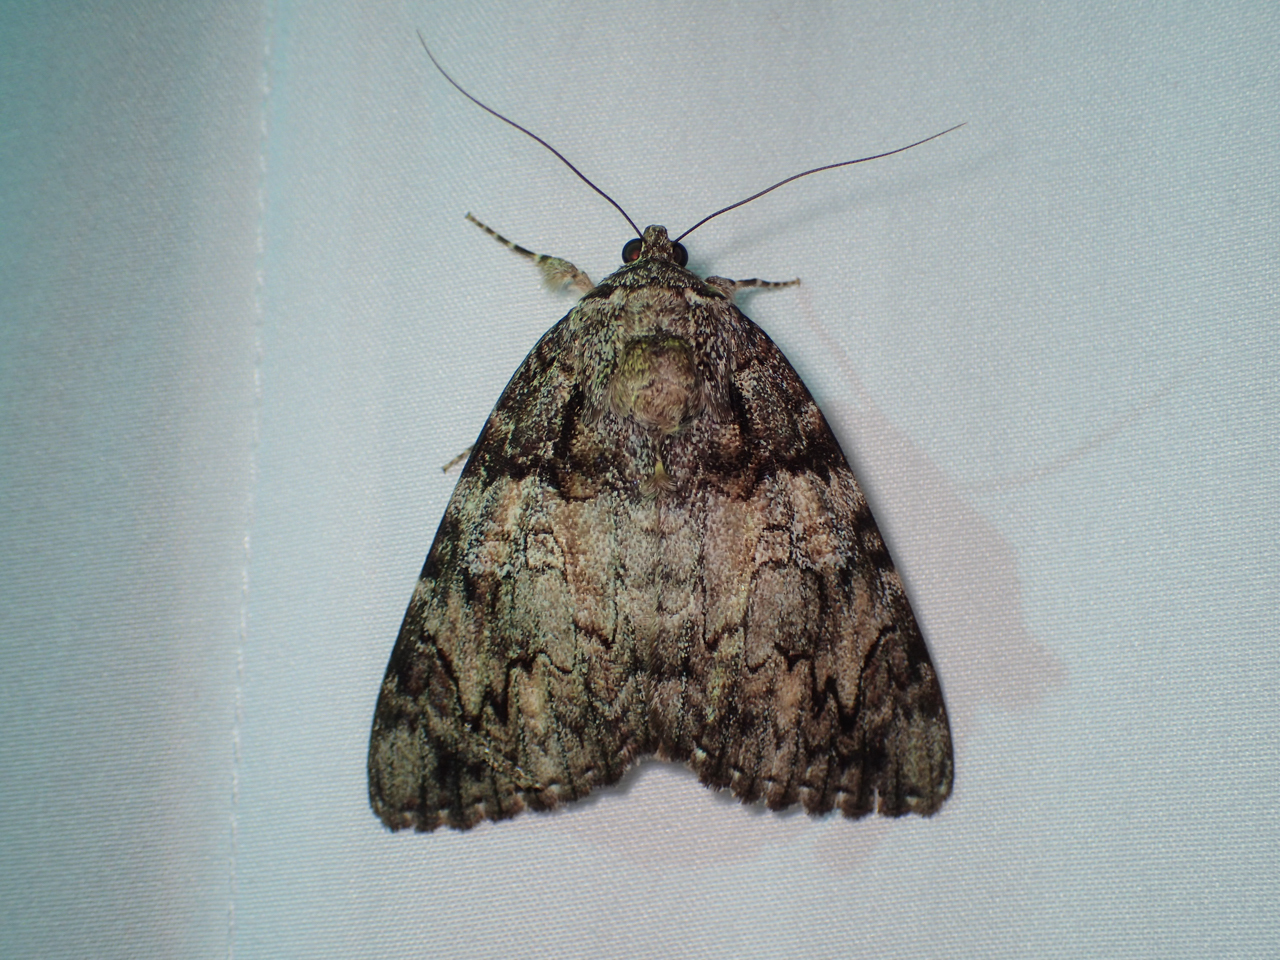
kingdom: Animalia
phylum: Arthropoda
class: Insecta
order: Lepidoptera
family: Erebidae
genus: Catocala
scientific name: Catocala ilia
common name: Ilia underwing
